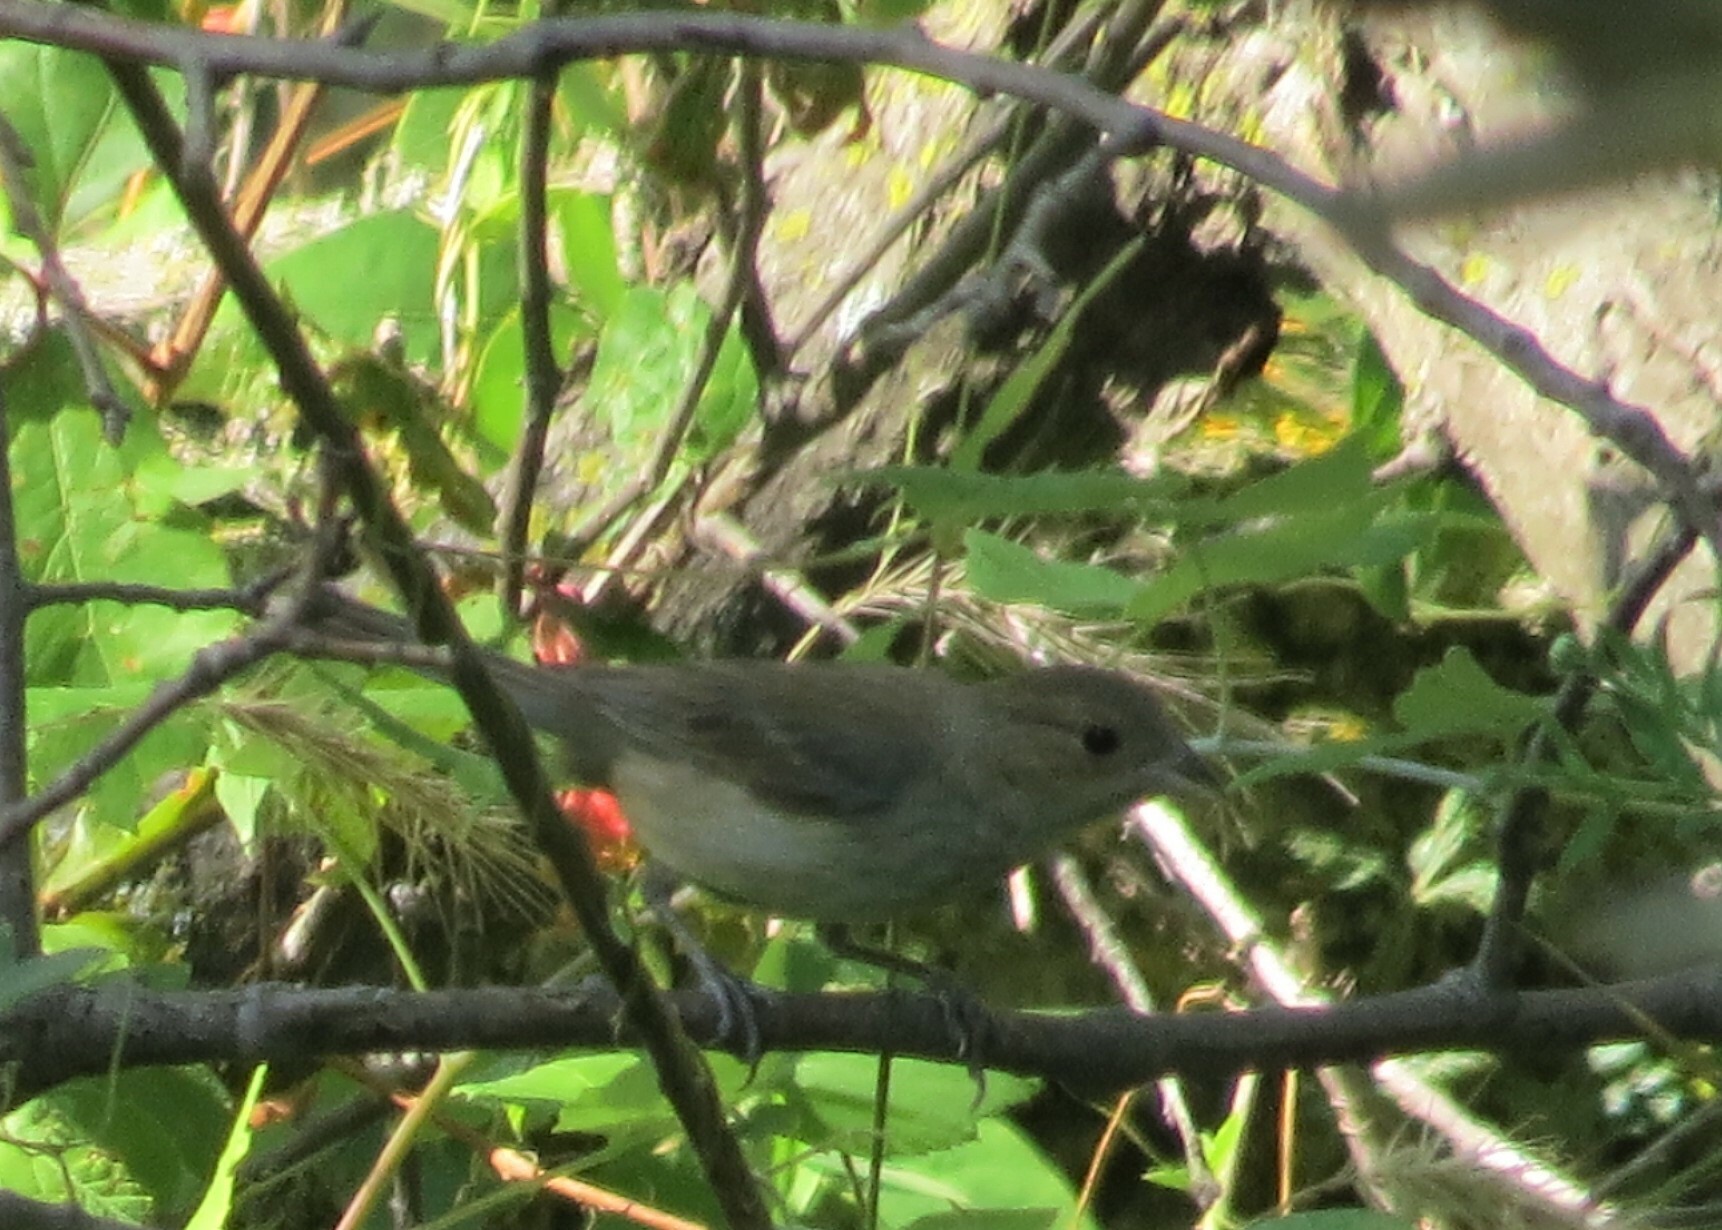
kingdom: Animalia
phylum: Chordata
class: Aves
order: Passeriformes
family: Cardinalidae
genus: Passerina
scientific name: Passerina cyanea
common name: Indigo bunting
